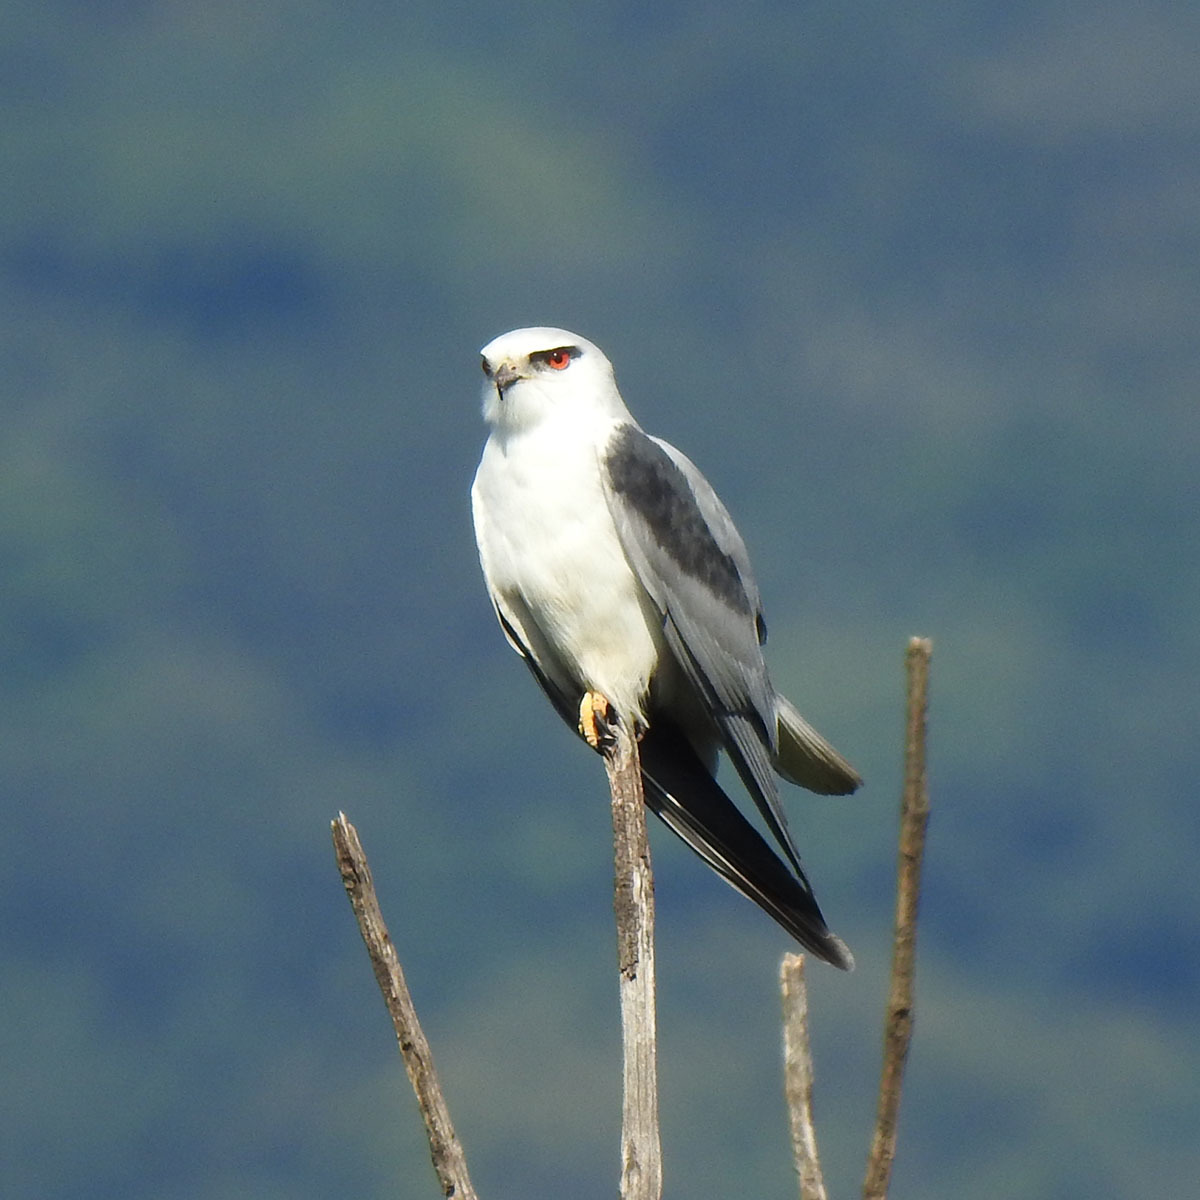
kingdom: Animalia
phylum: Chordata
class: Aves
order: Accipitriformes
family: Accipitridae
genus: Elanus
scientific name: Elanus caeruleus
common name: Black-winged kite
